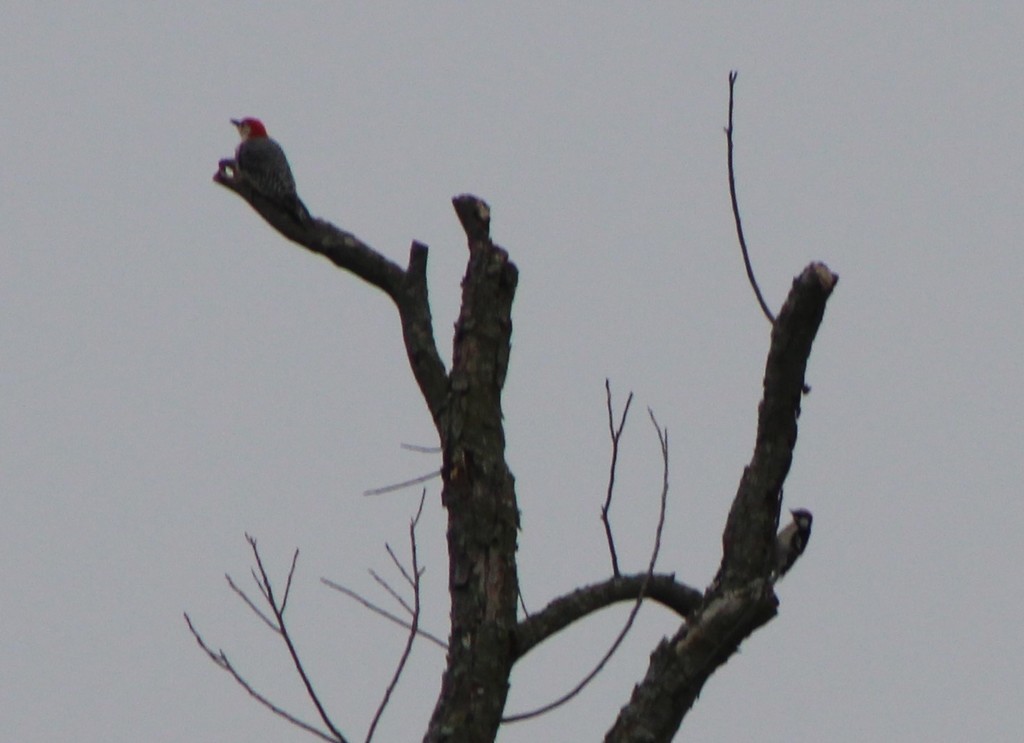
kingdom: Animalia
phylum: Chordata
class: Aves
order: Piciformes
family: Picidae
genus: Melanerpes
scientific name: Melanerpes carolinus
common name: Red-bellied woodpecker
